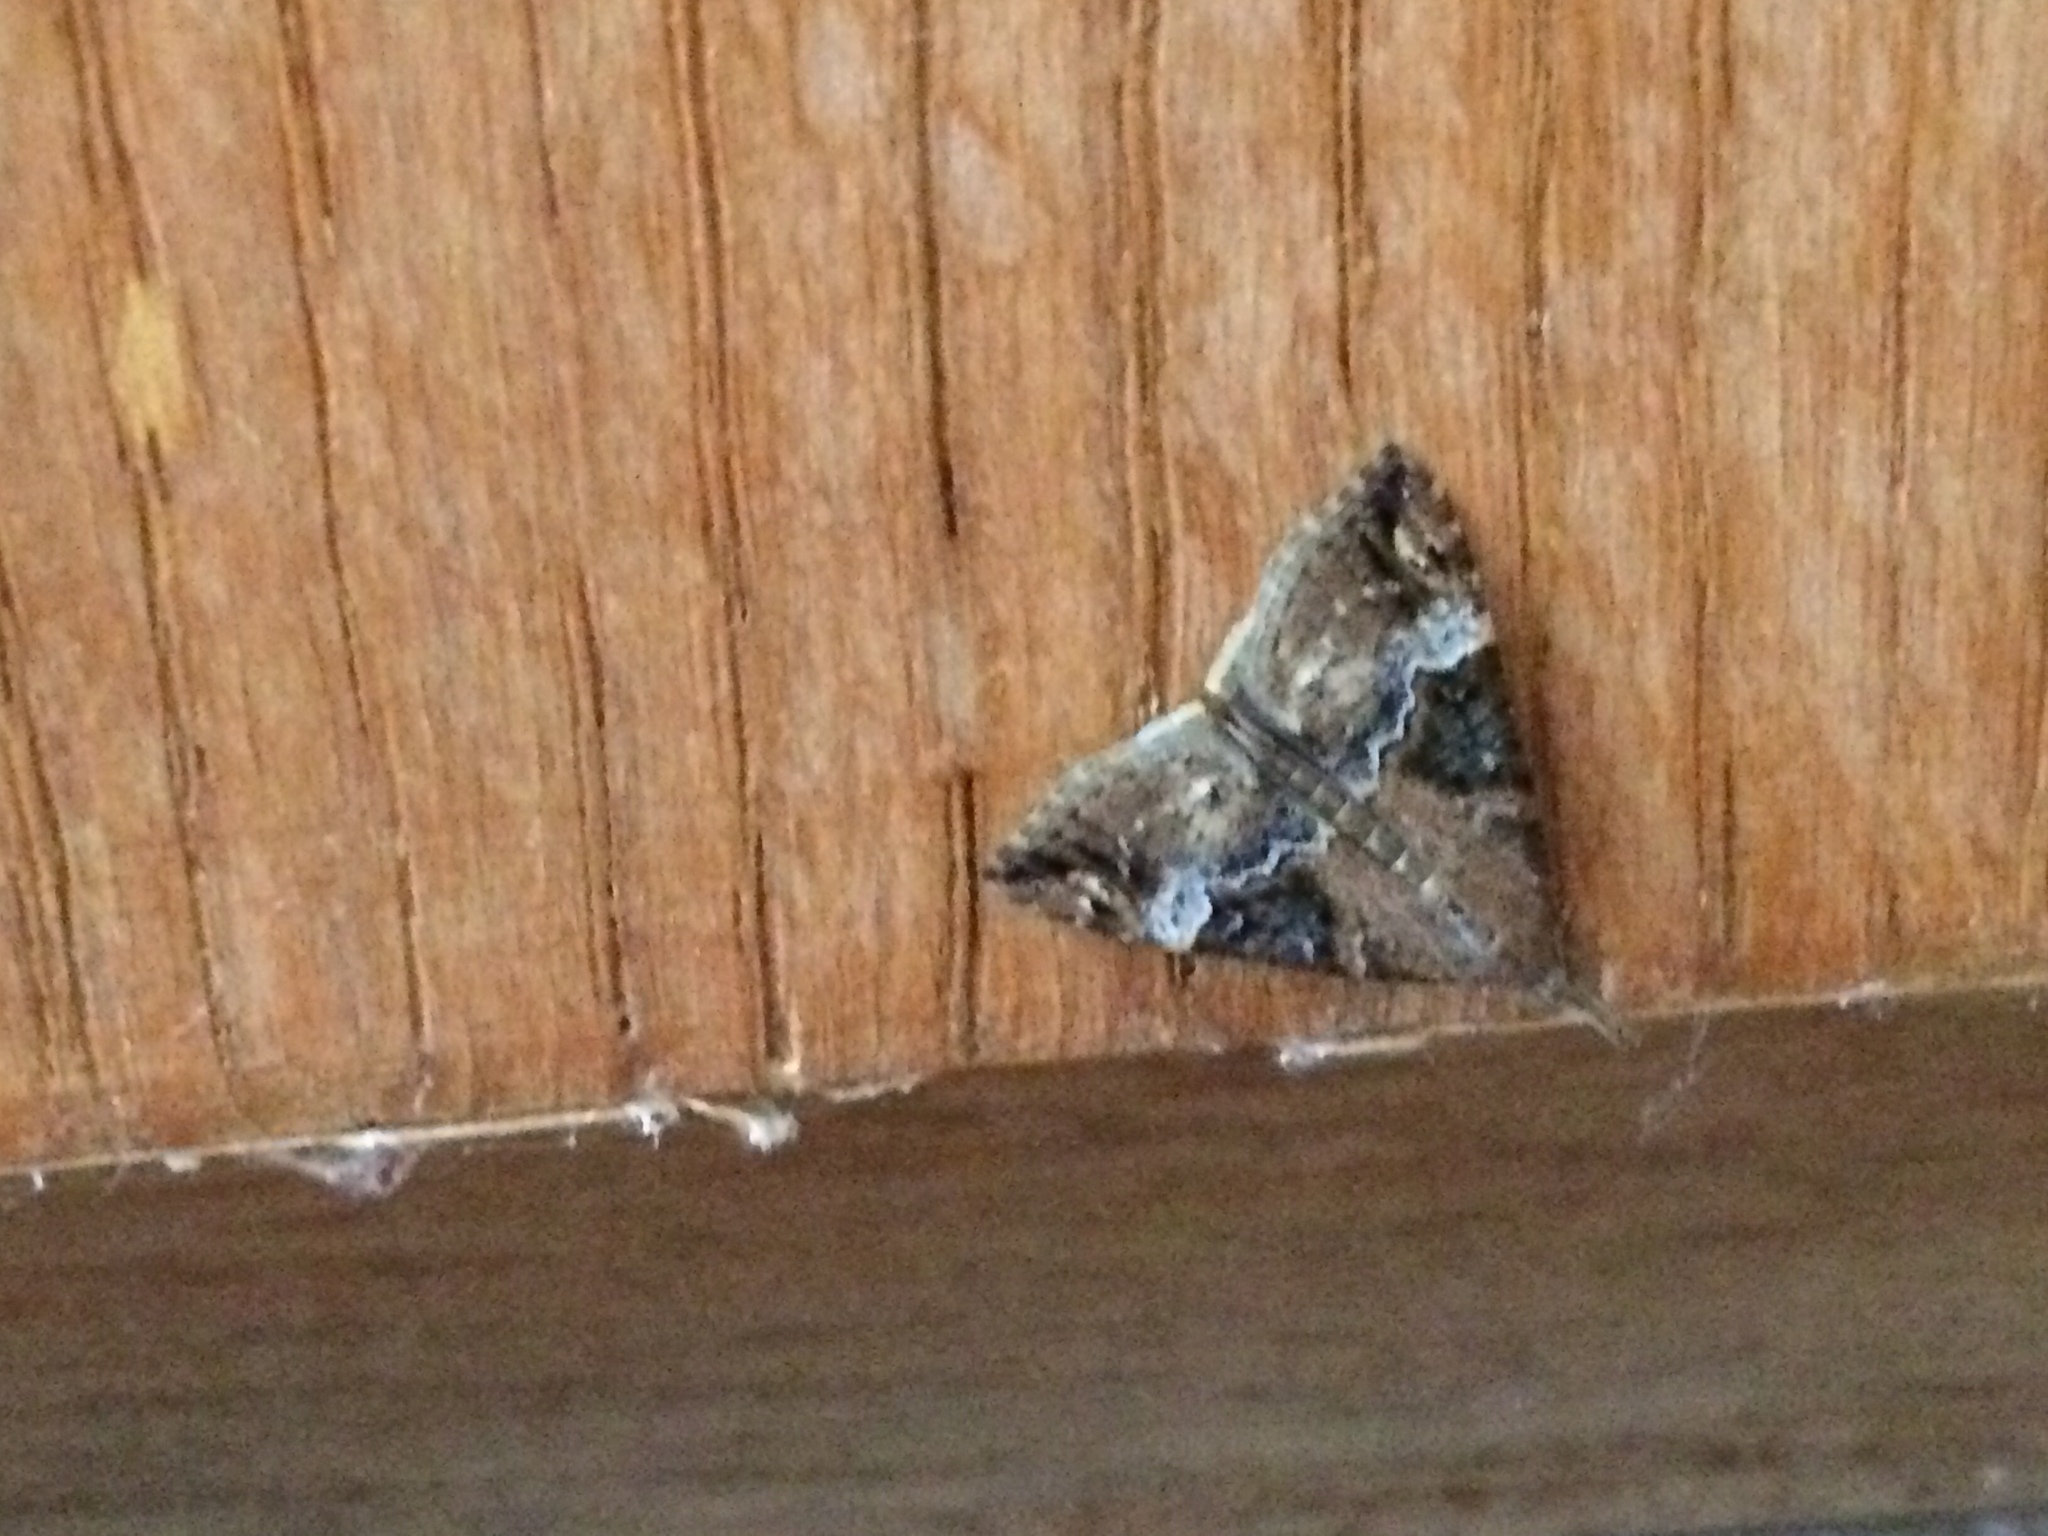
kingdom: Animalia
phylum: Arthropoda
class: Insecta
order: Lepidoptera
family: Erebidae
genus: Hypena
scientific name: Hypena obsitalis
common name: Bloxworth snout
